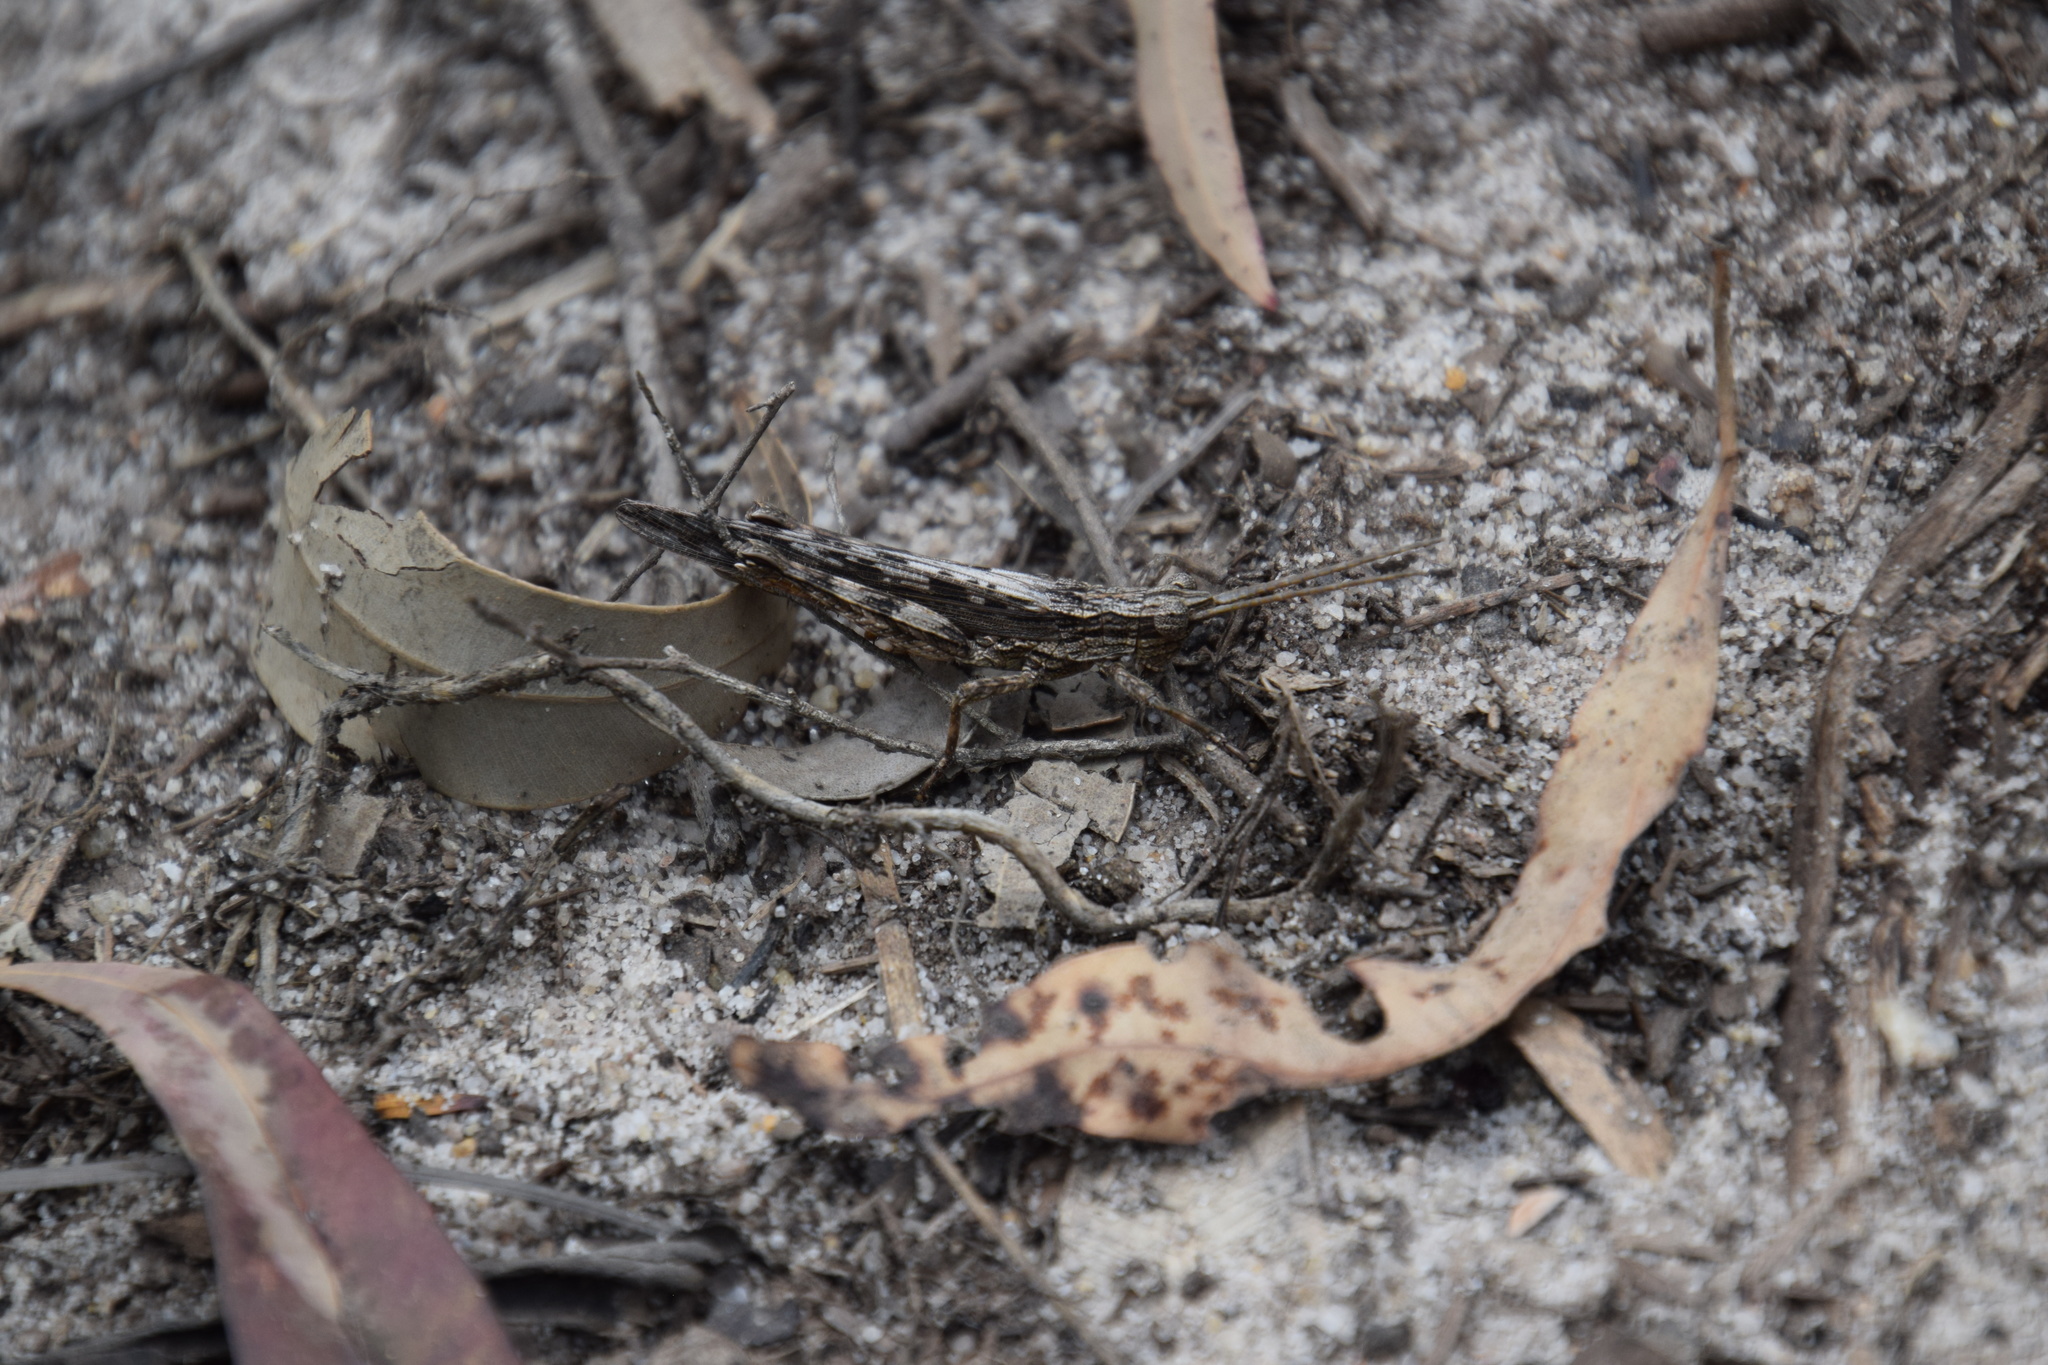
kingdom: Animalia
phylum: Arthropoda
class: Insecta
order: Orthoptera
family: Acrididae
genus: Coryphistes
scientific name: Coryphistes ruricola
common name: Bark-mimicking grasshopper
